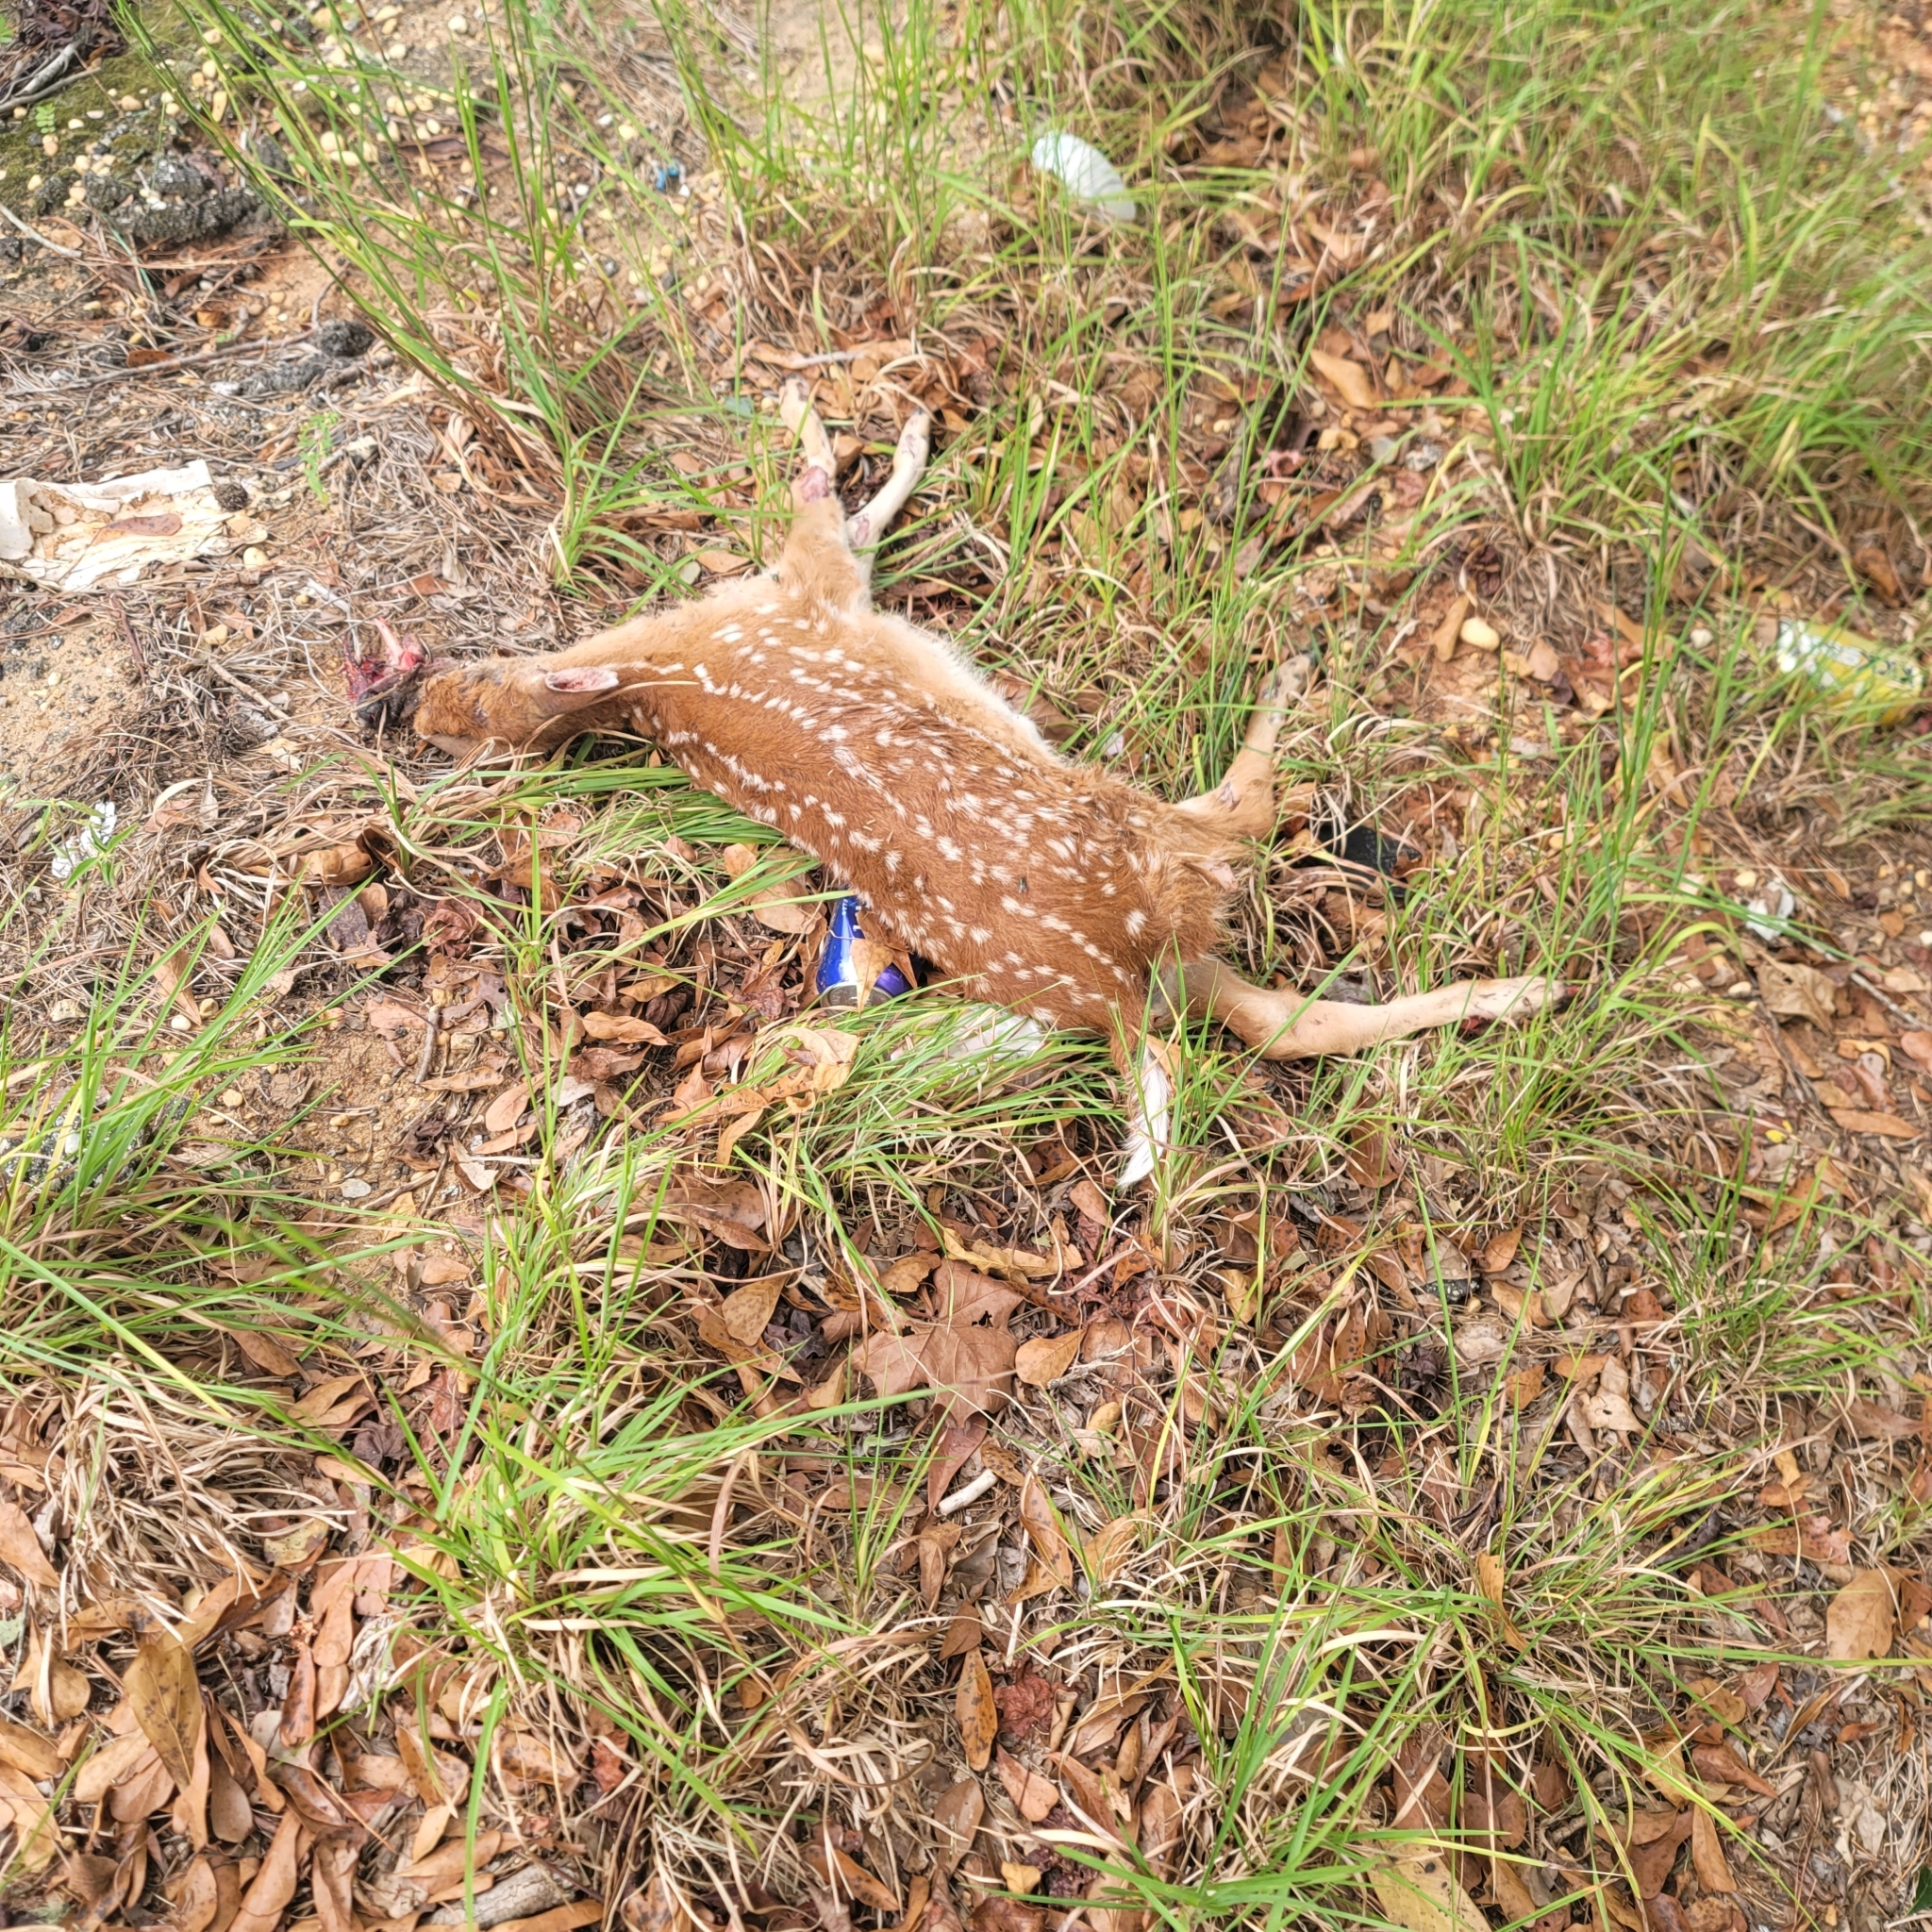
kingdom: Animalia
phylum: Chordata
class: Mammalia
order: Artiodactyla
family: Cervidae
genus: Odocoileus
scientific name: Odocoileus virginianus
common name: White-tailed deer
